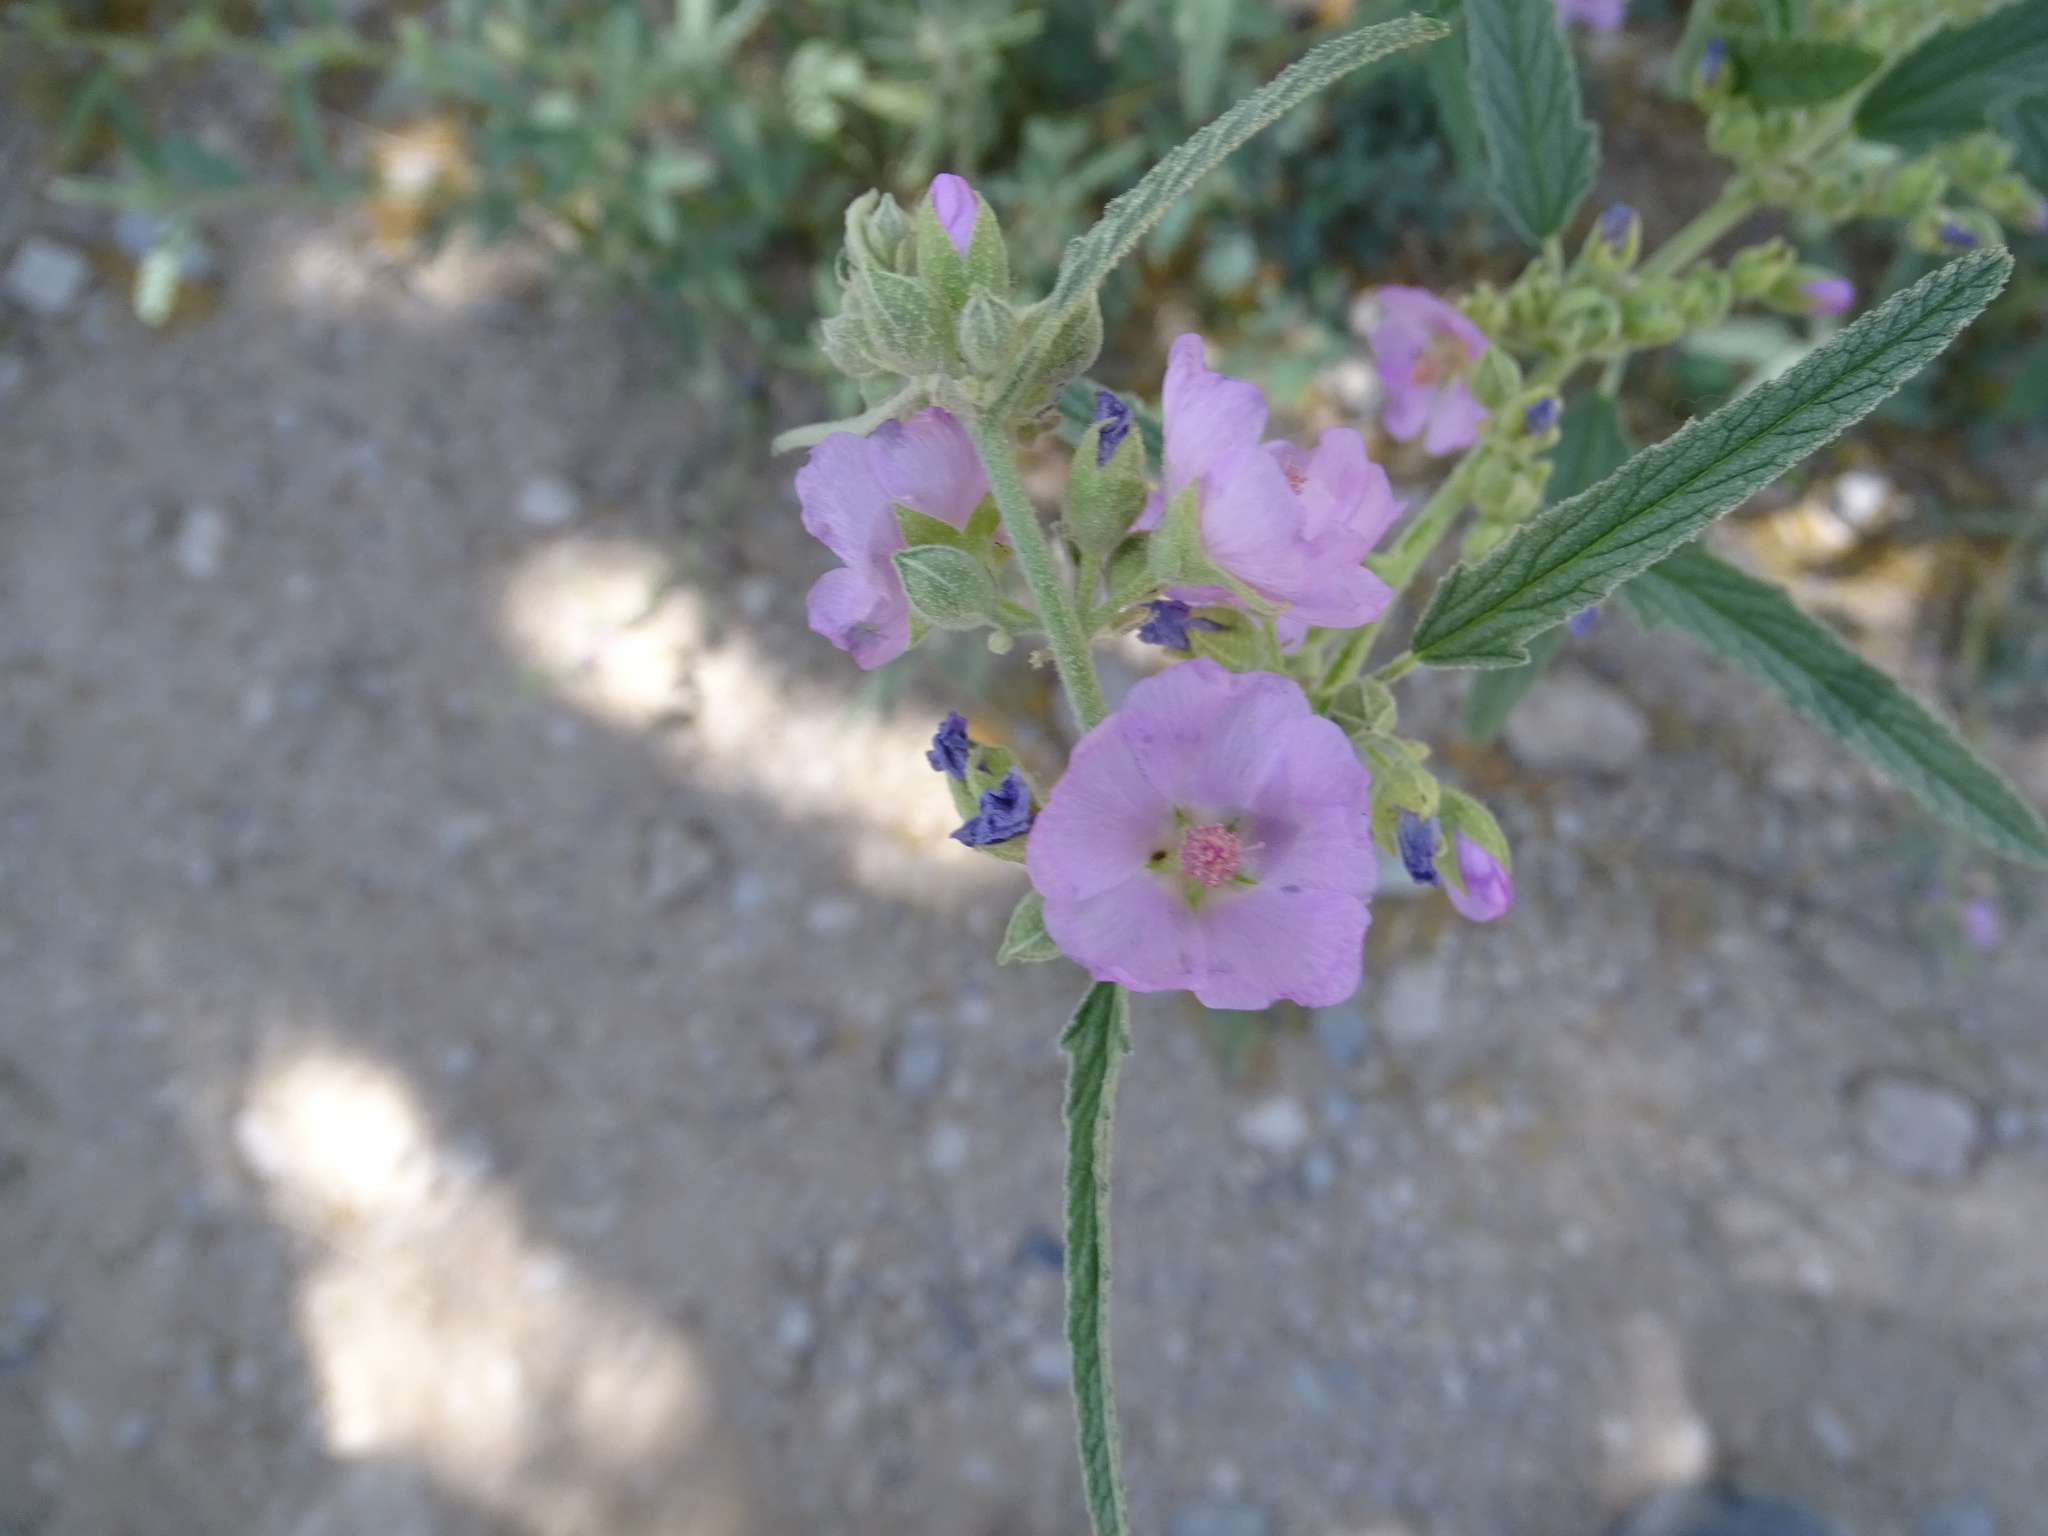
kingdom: Plantae
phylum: Tracheophyta
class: Magnoliopsida
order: Malvales
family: Malvaceae
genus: Sphaeralcea
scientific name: Sphaeralcea angustifolia
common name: Copper globe-mallow
